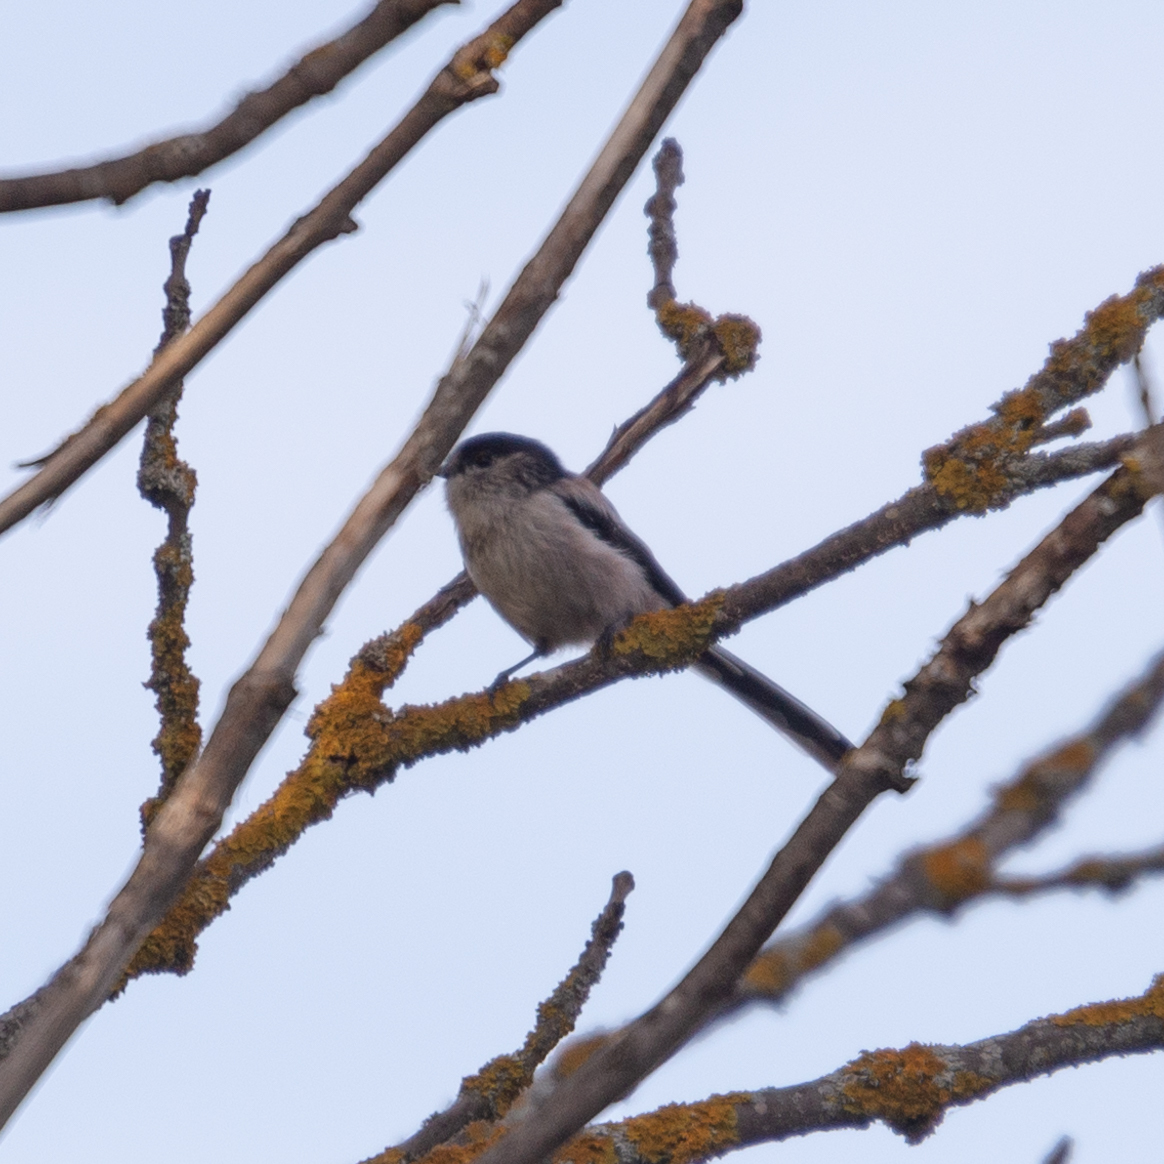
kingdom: Animalia
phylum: Chordata
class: Aves
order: Passeriformes
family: Aegithalidae
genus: Aegithalos
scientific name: Aegithalos caudatus
